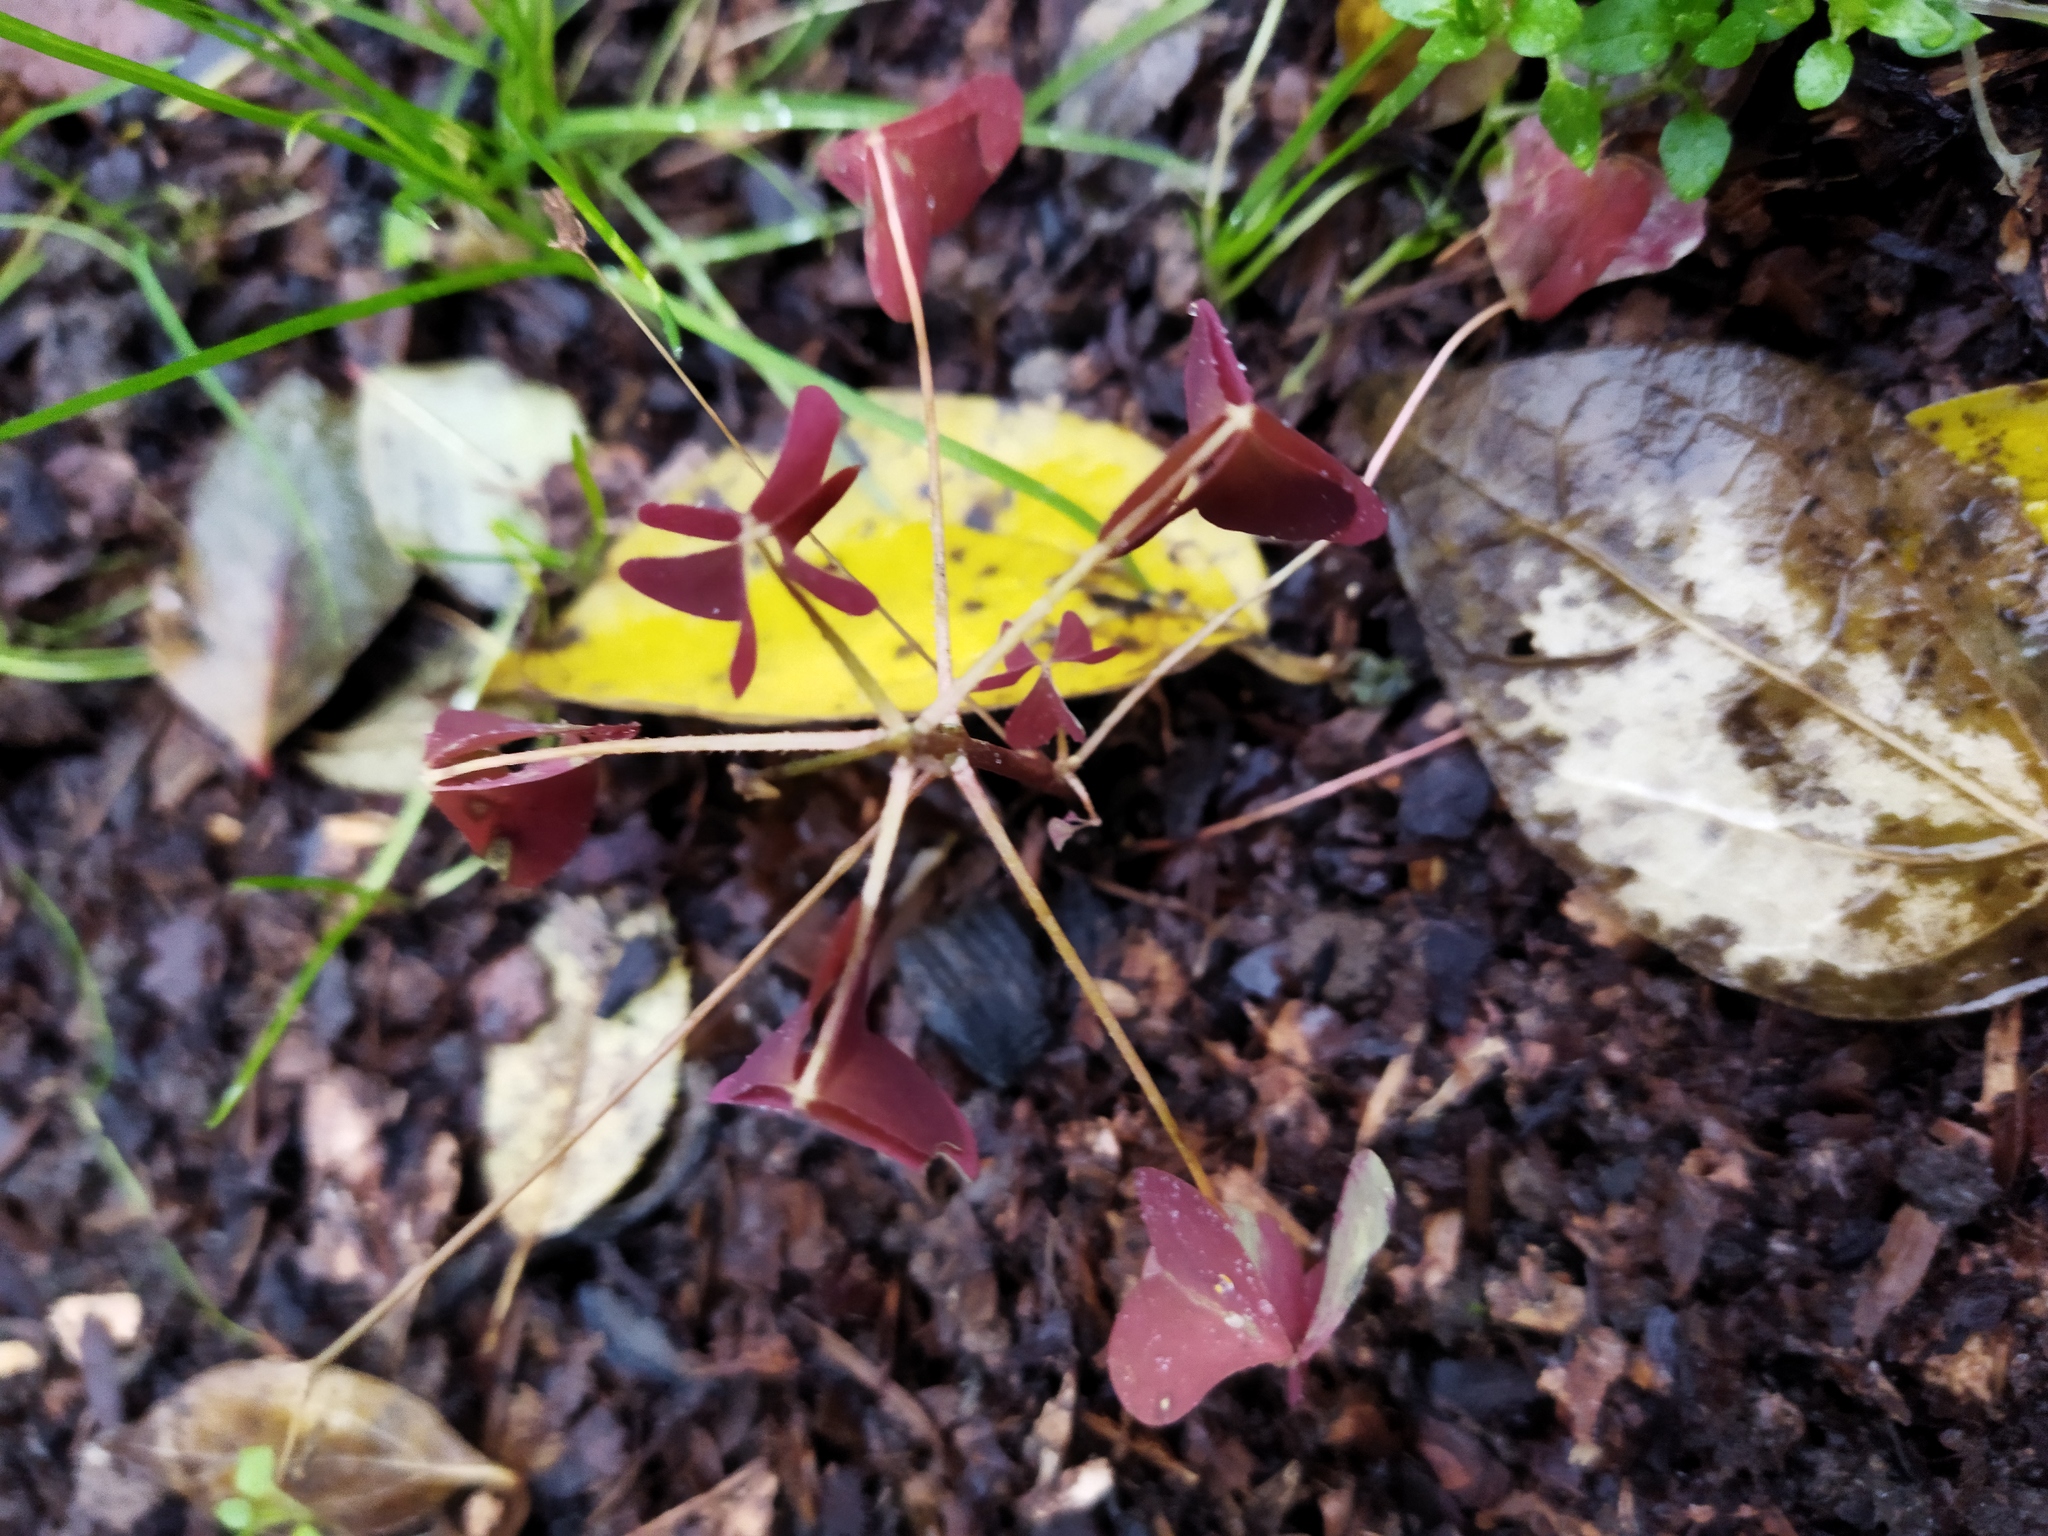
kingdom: Plantae
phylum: Tracheophyta
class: Magnoliopsida
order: Oxalidales
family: Oxalidaceae
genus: Oxalis
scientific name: Oxalis stricta
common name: Upright yellow-sorrel
